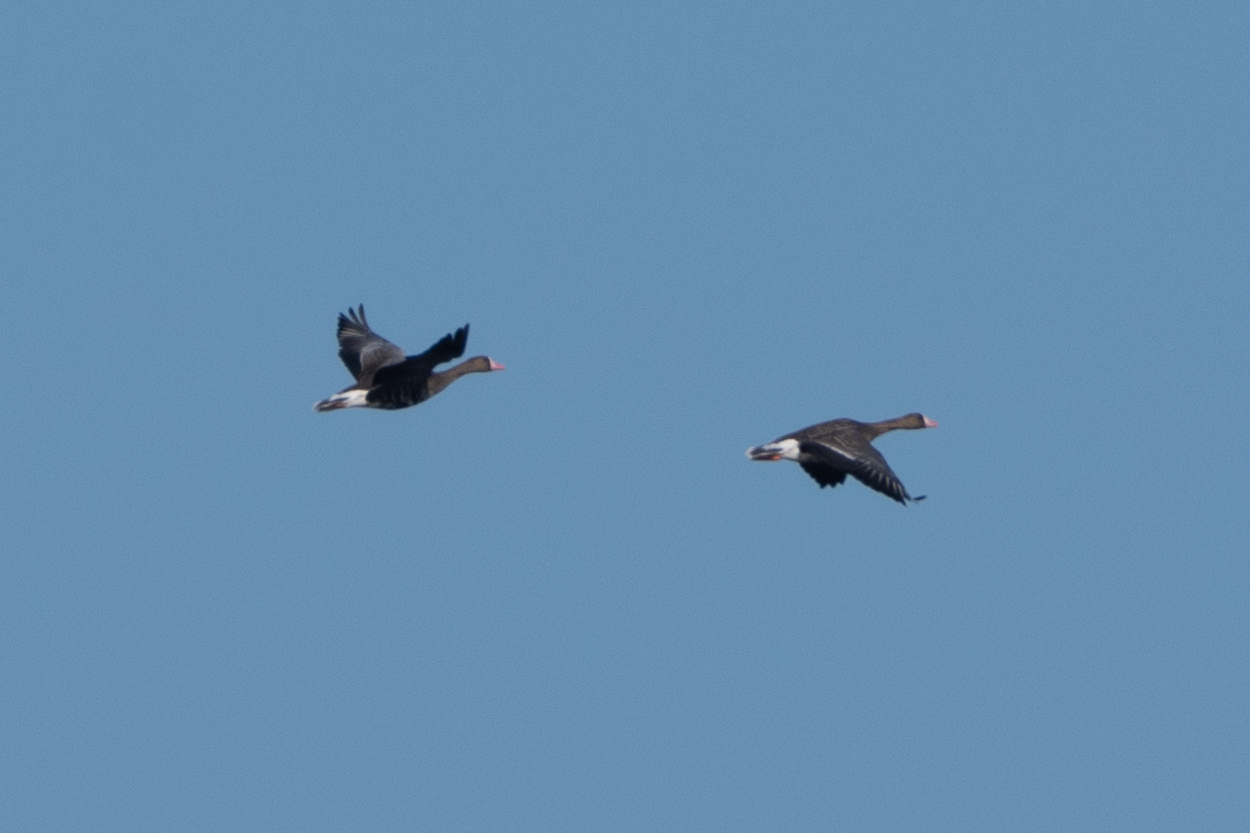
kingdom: Animalia
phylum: Chordata
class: Aves
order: Anseriformes
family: Anatidae
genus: Anser
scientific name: Anser albifrons
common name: Greater white-fronted goose
